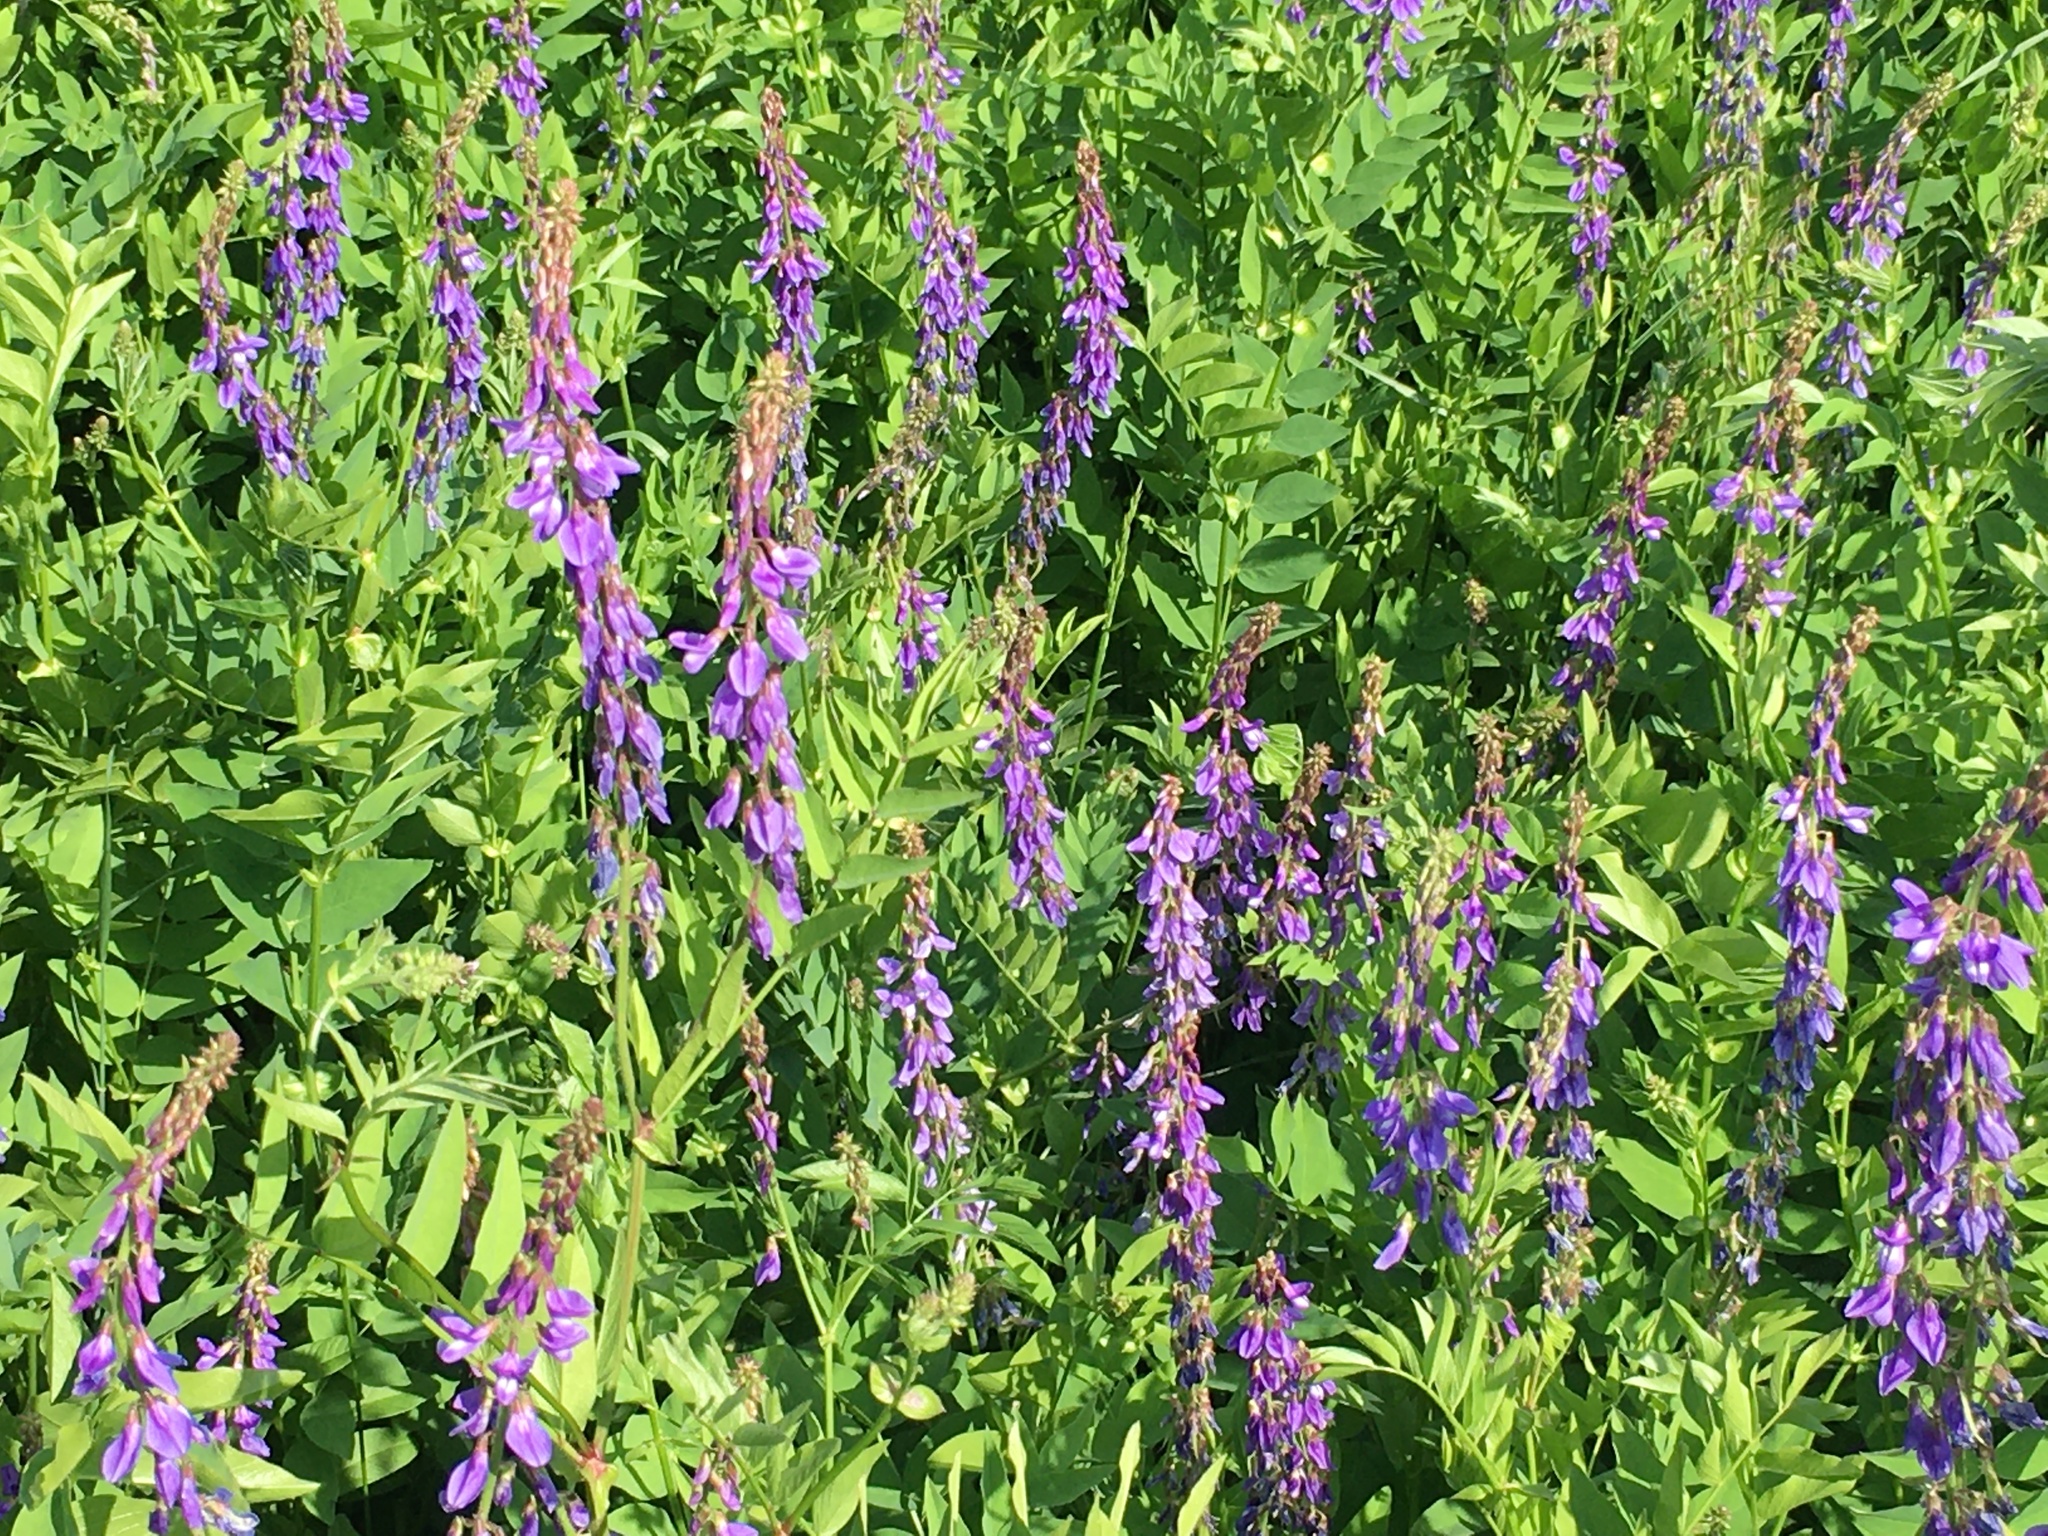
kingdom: Plantae
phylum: Tracheophyta
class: Magnoliopsida
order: Fabales
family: Fabaceae
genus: Galega
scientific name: Galega orientalis
